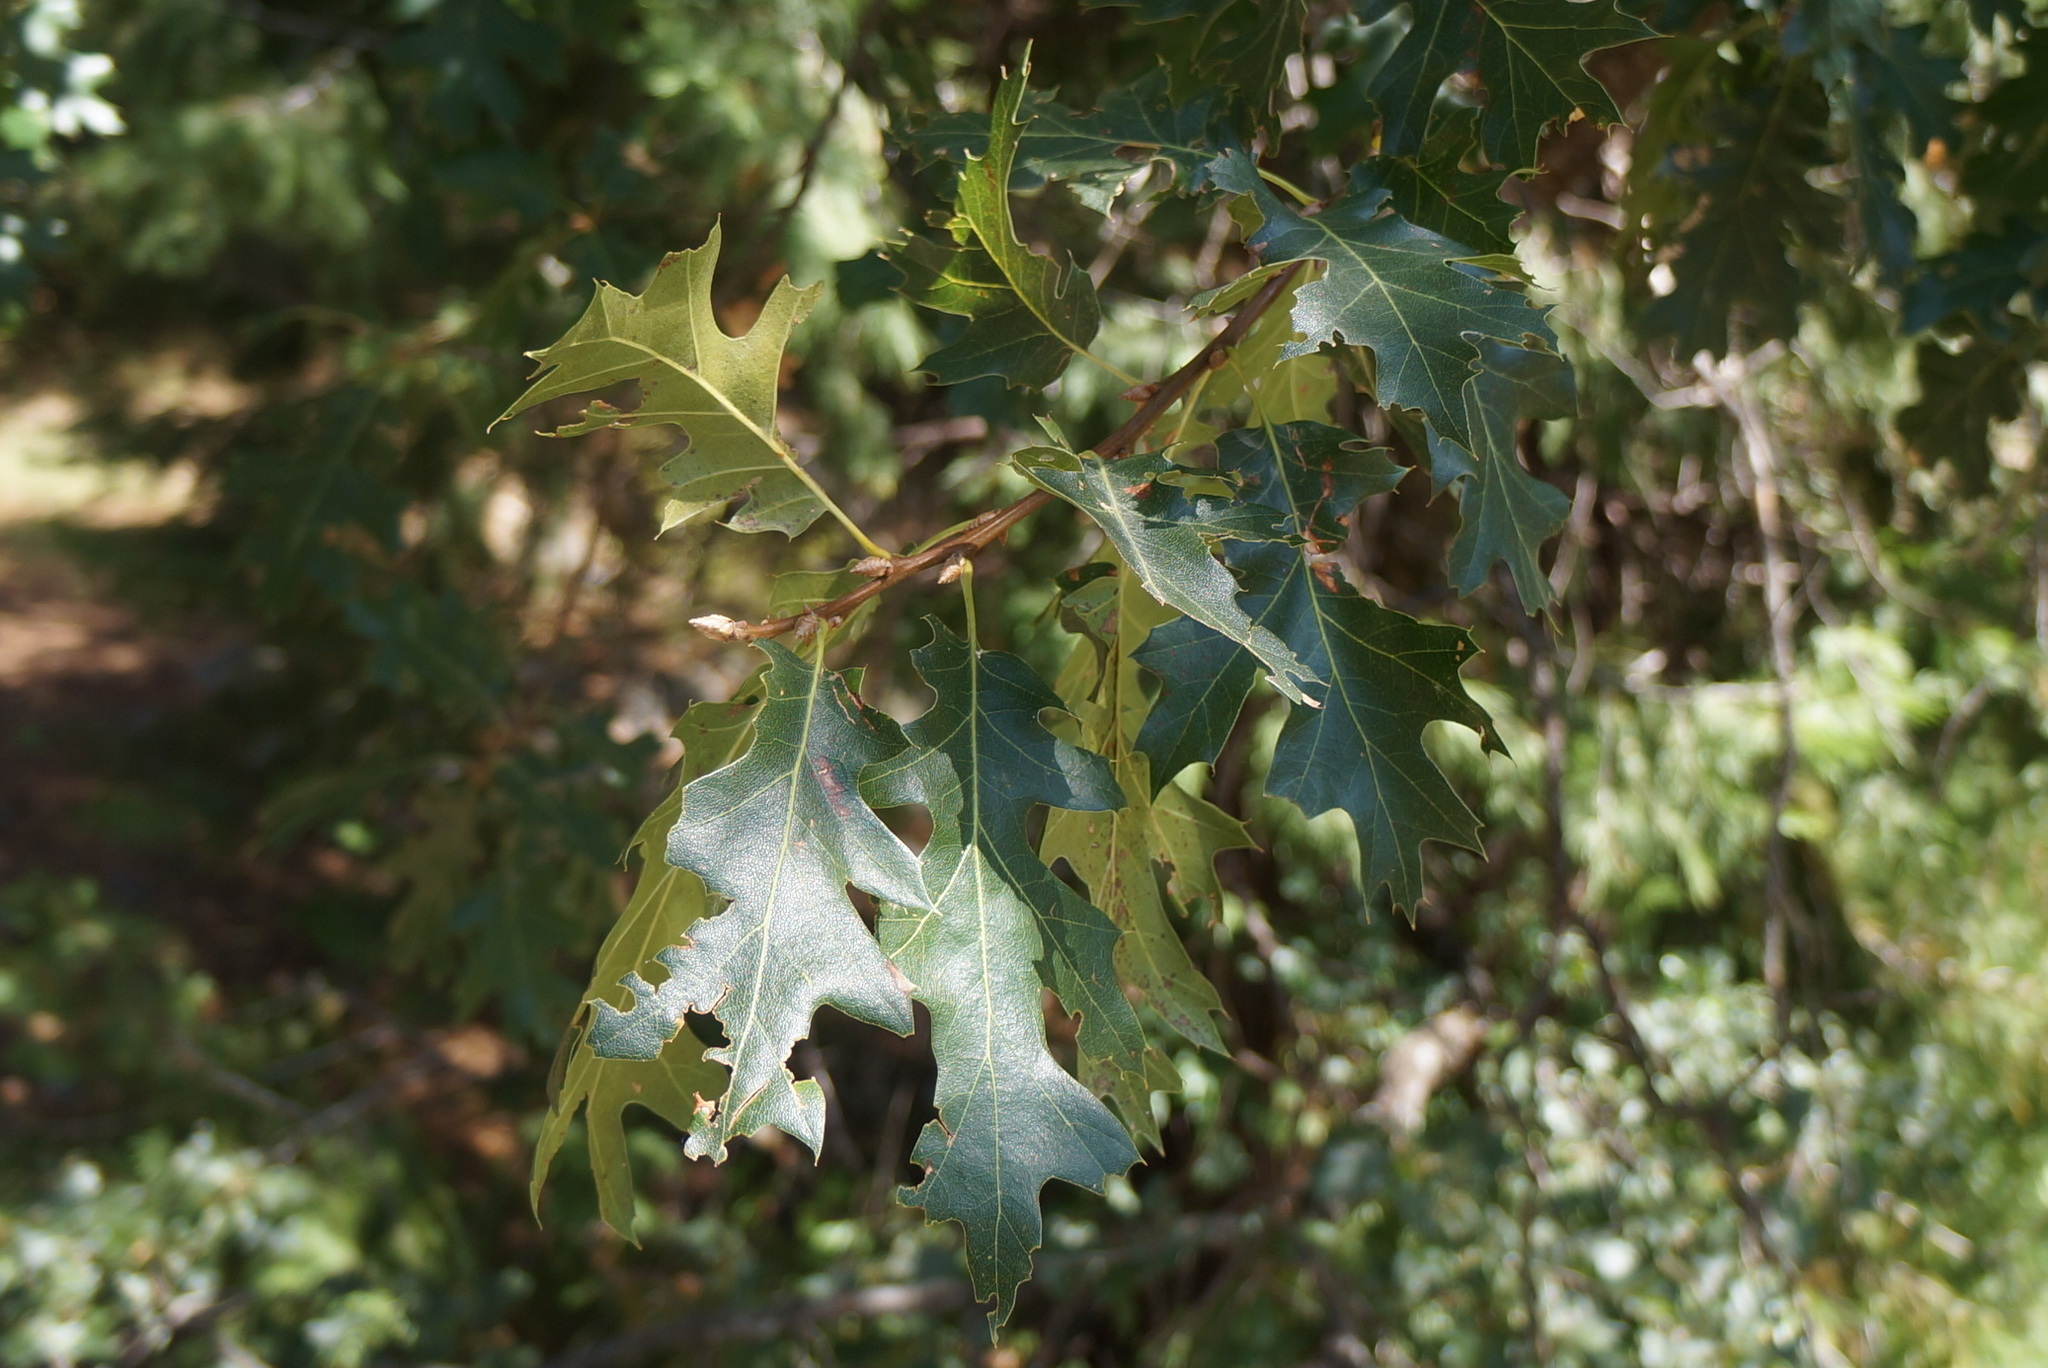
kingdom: Plantae
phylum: Tracheophyta
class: Magnoliopsida
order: Fagales
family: Fagaceae
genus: Quercus
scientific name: Quercus kelloggii
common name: California black oak
